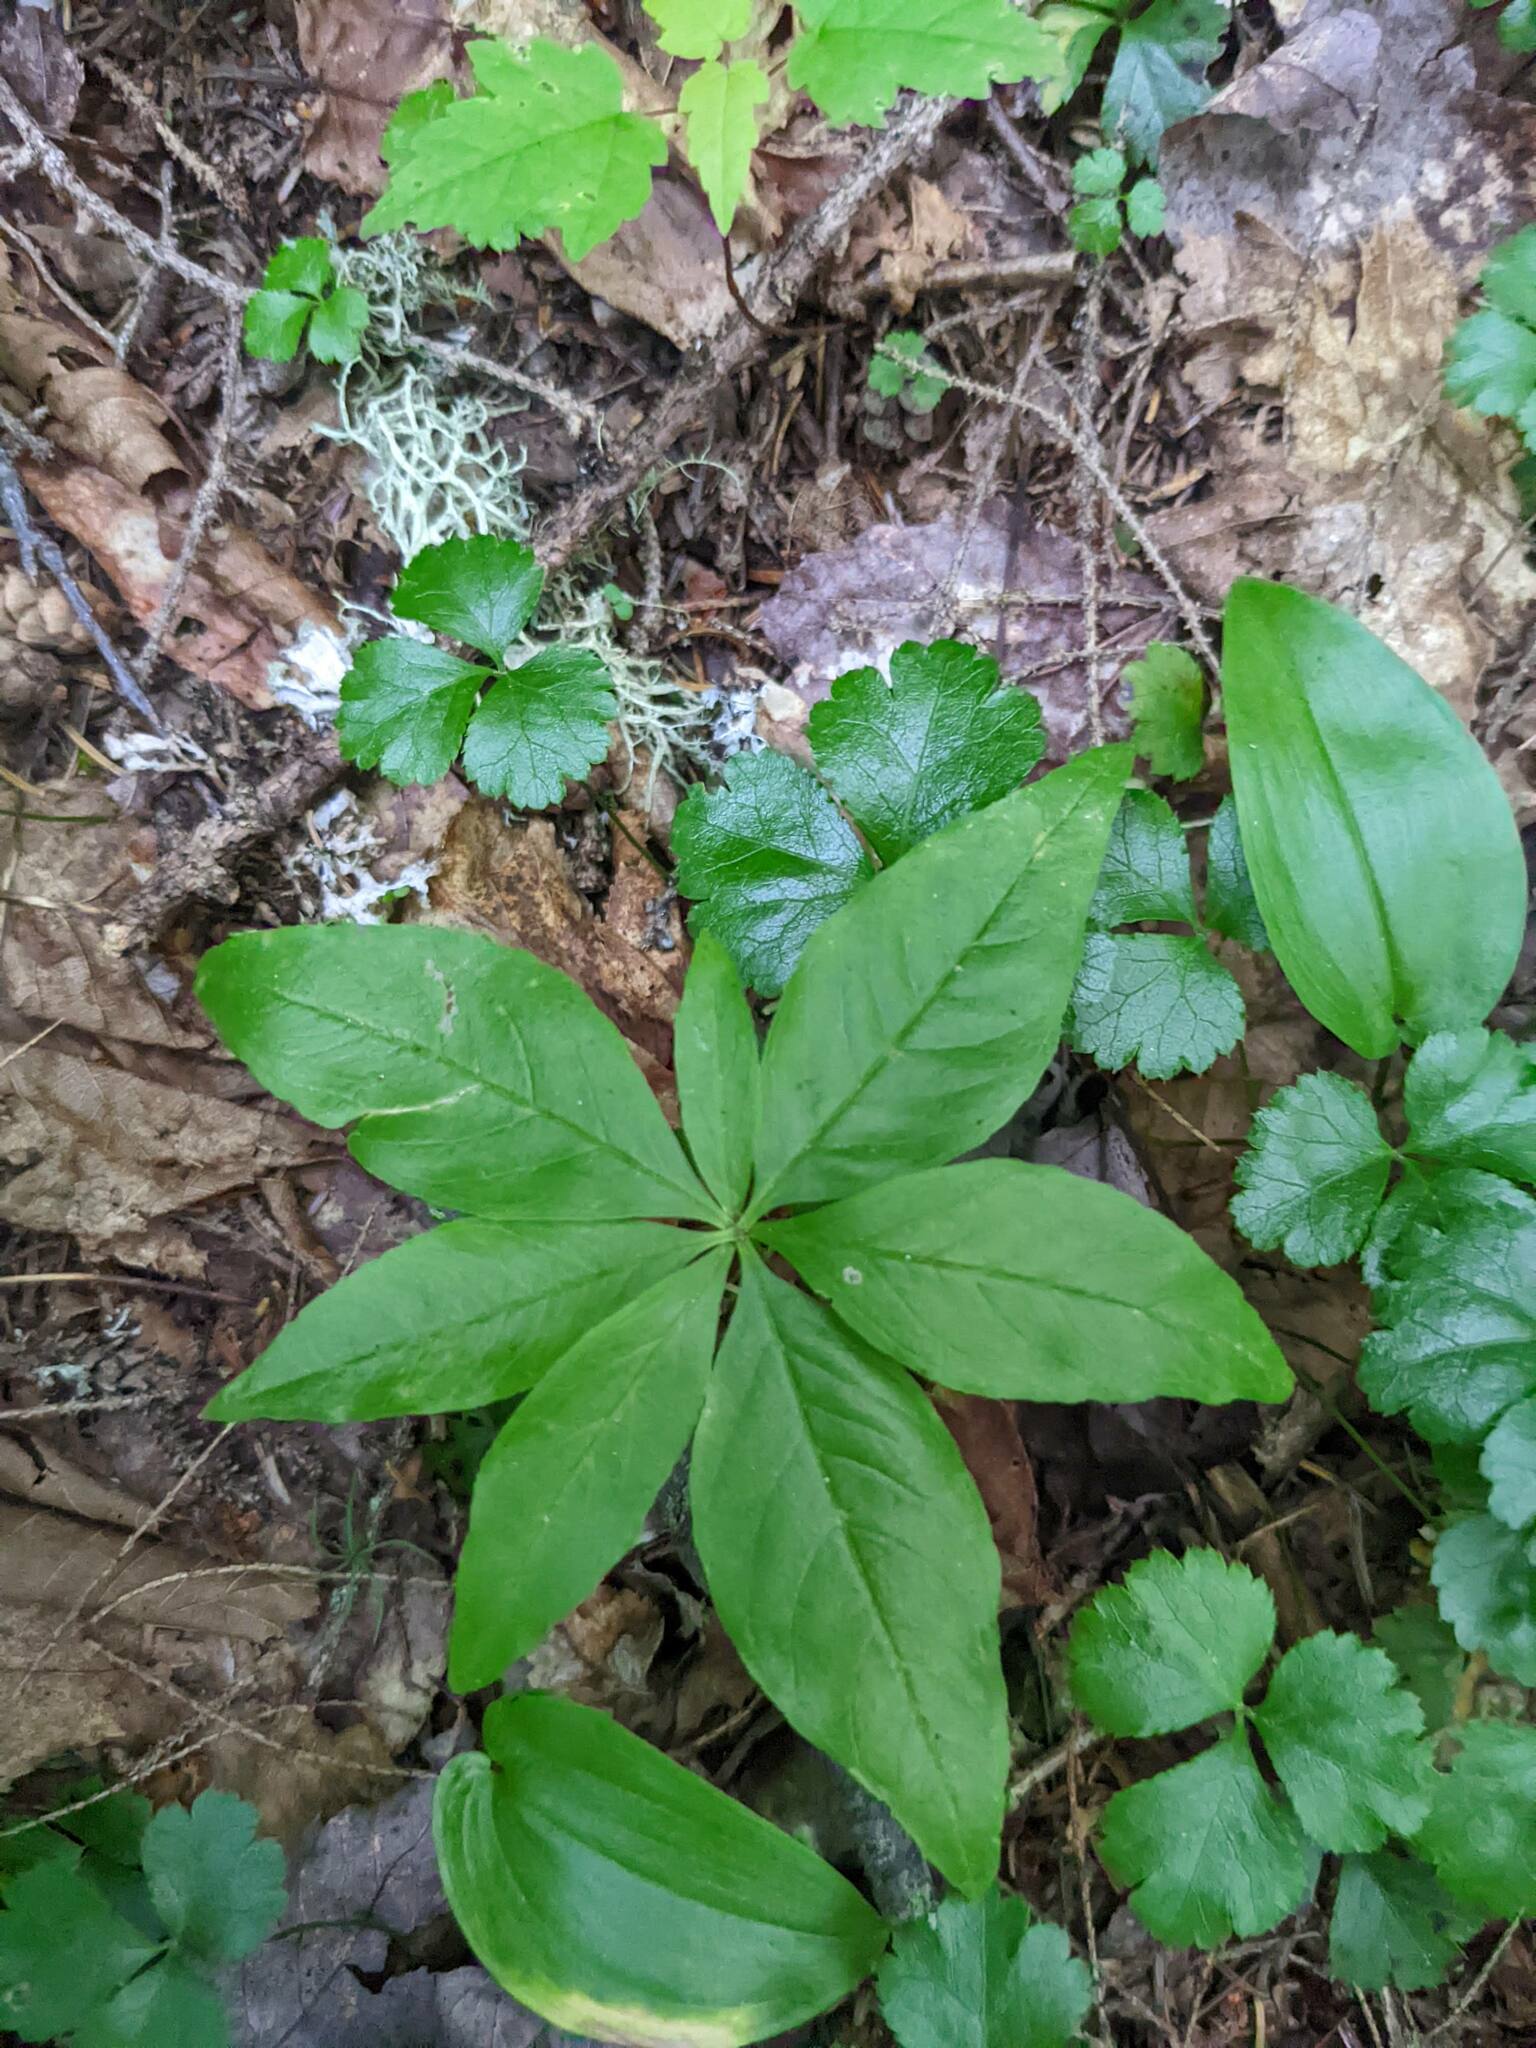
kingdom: Plantae
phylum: Tracheophyta
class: Magnoliopsida
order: Ranunculales
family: Ranunculaceae
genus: Coptis
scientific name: Coptis trifolia
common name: Canker-root
